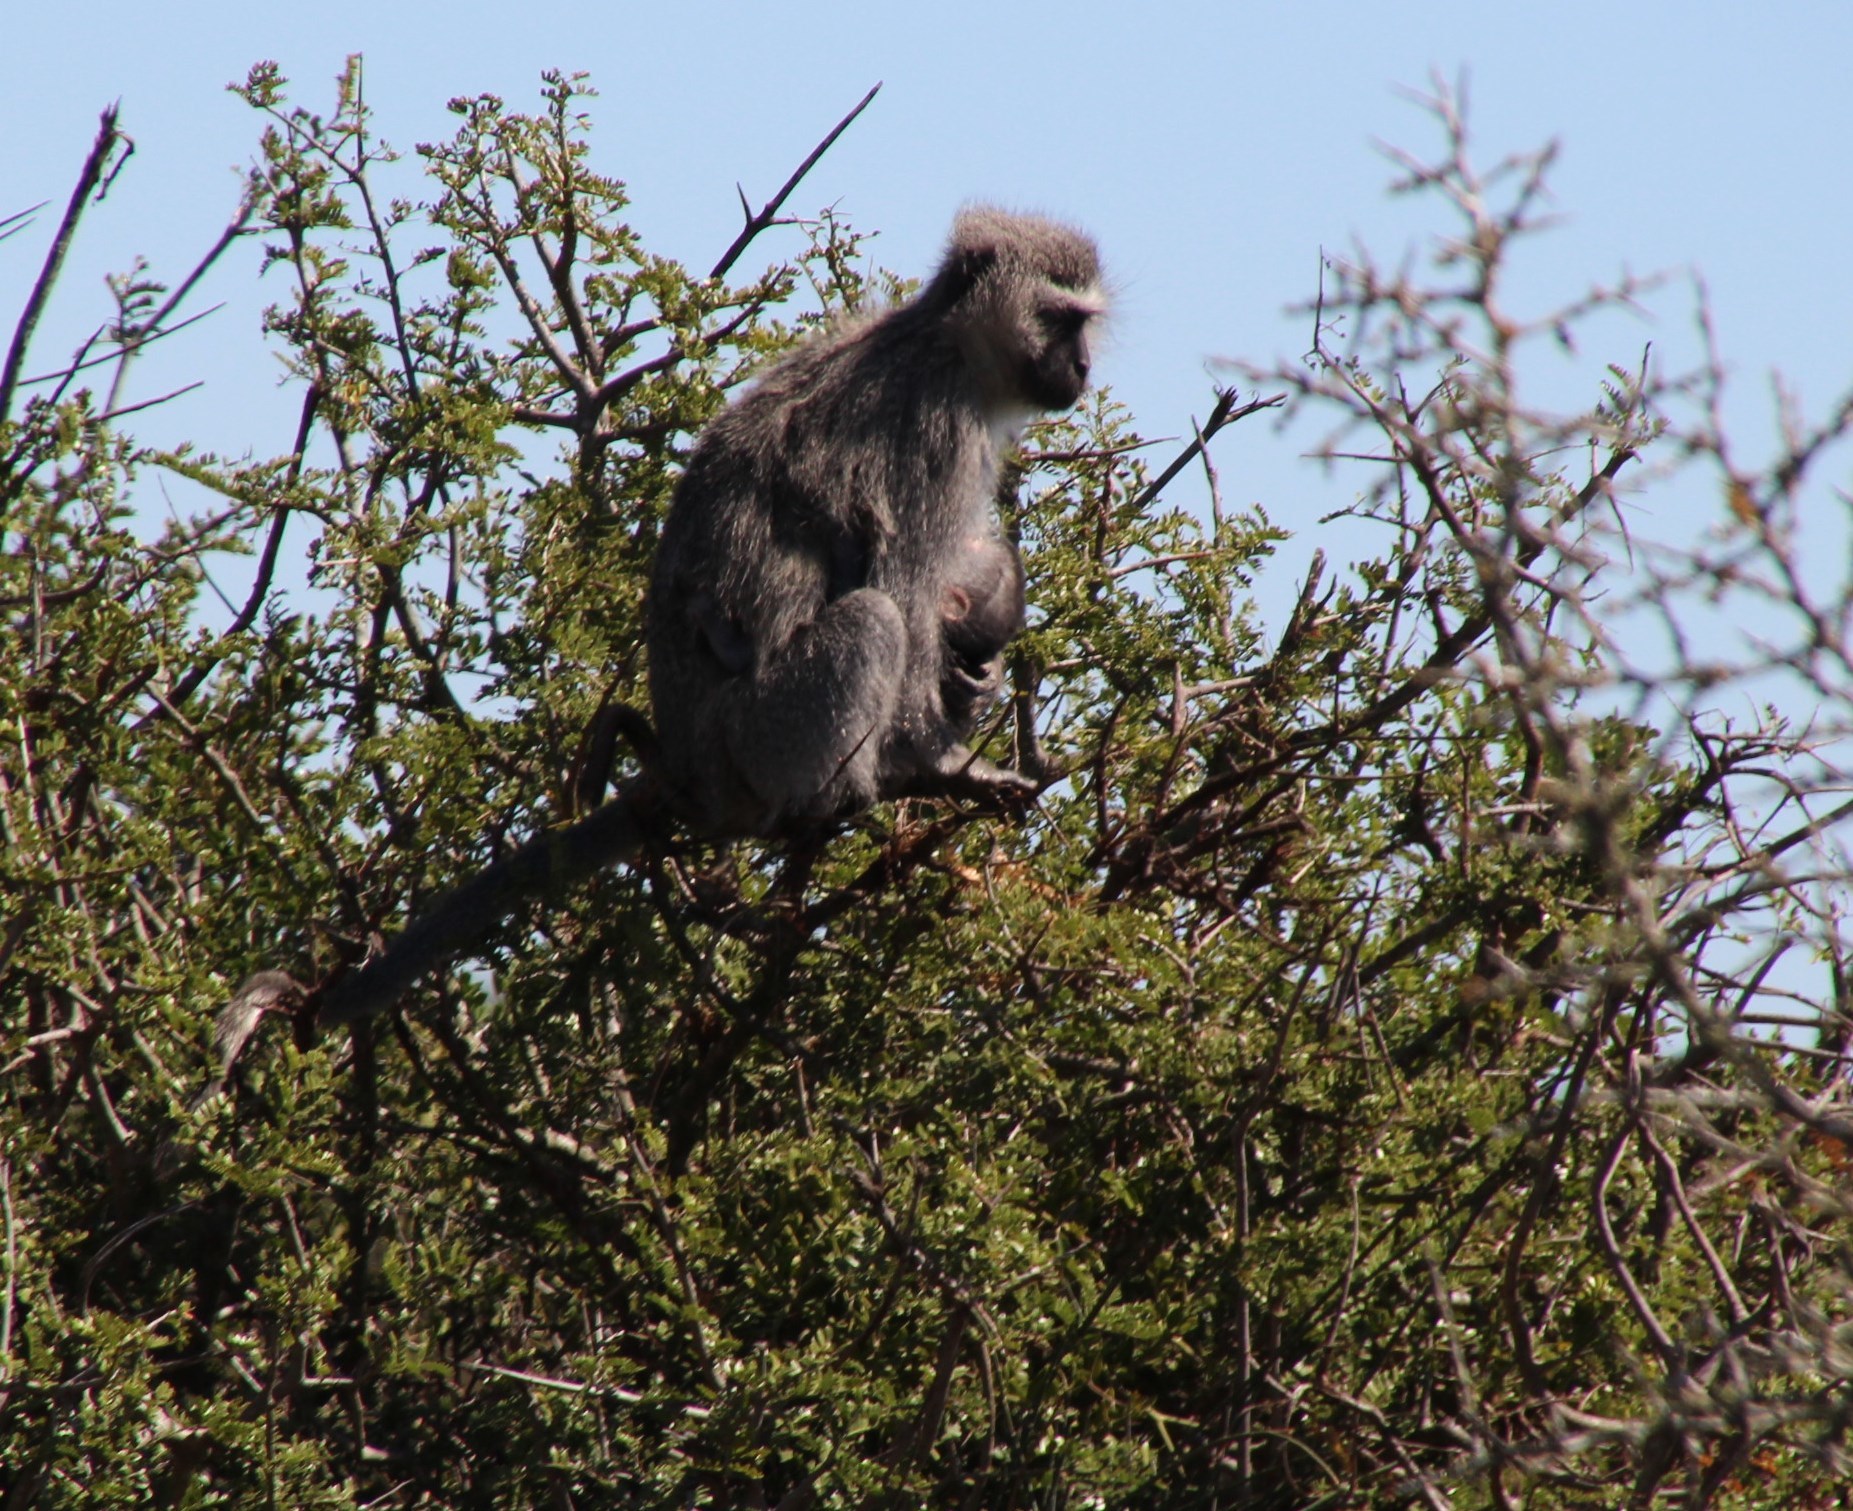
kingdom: Animalia
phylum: Chordata
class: Mammalia
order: Primates
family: Cercopithecidae
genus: Chlorocebus
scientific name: Chlorocebus pygerythrus
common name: Vervet monkey
